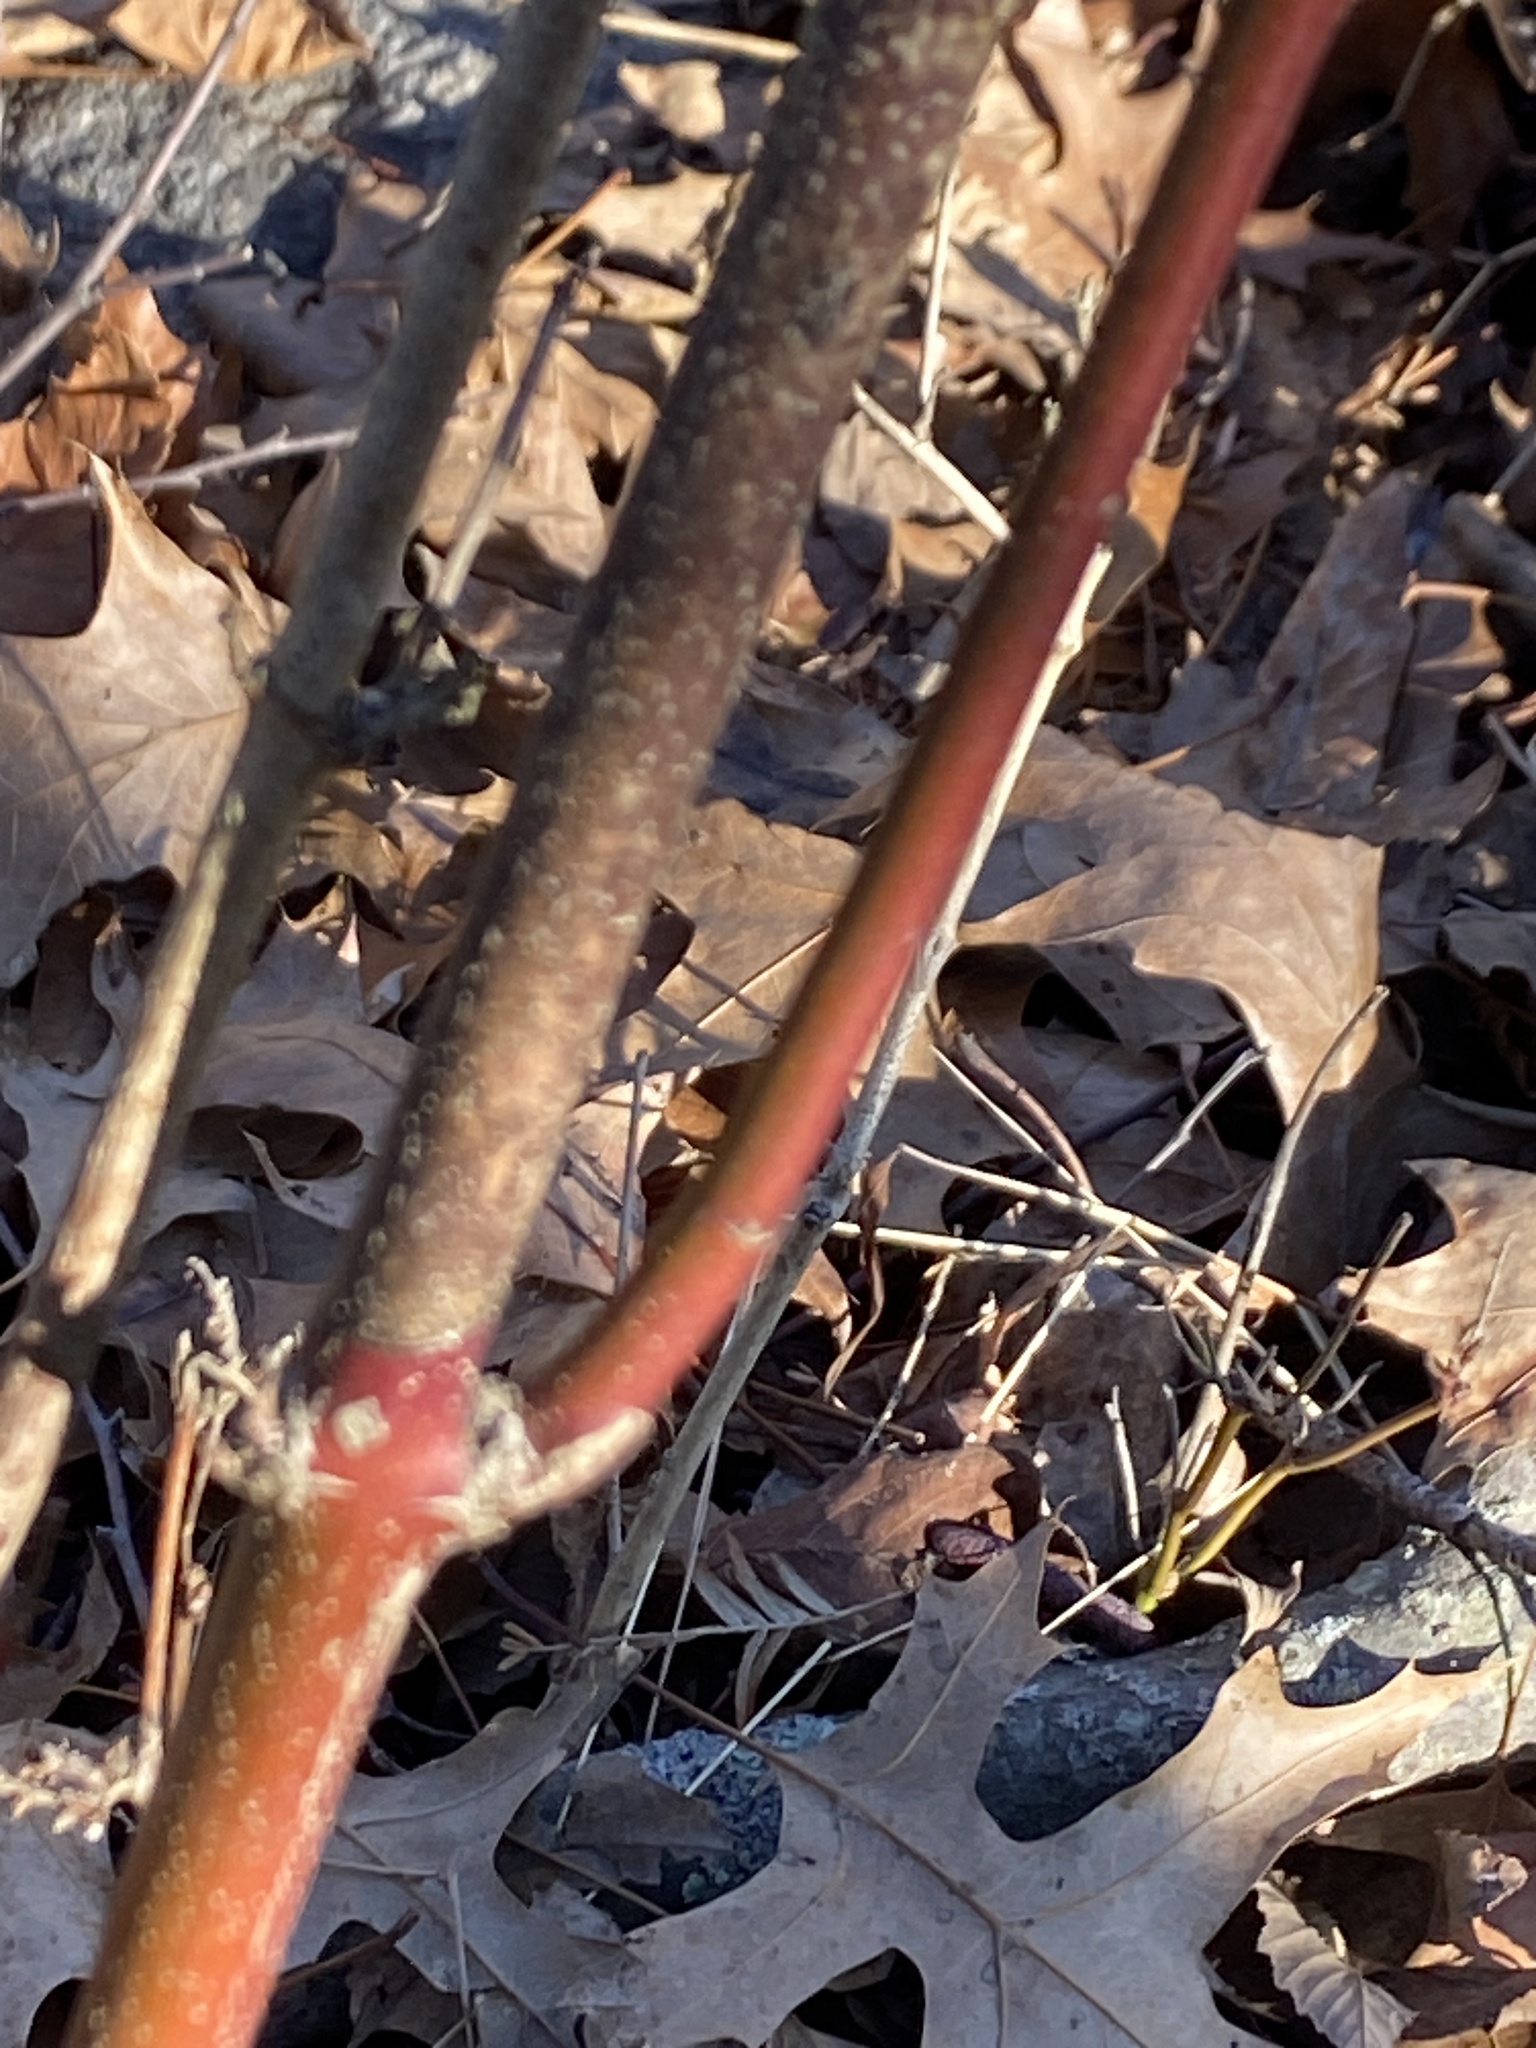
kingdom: Plantae
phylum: Tracheophyta
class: Magnoliopsida
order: Cornales
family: Cornaceae
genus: Cornus
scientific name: Cornus amomum
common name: Silky dogwood
